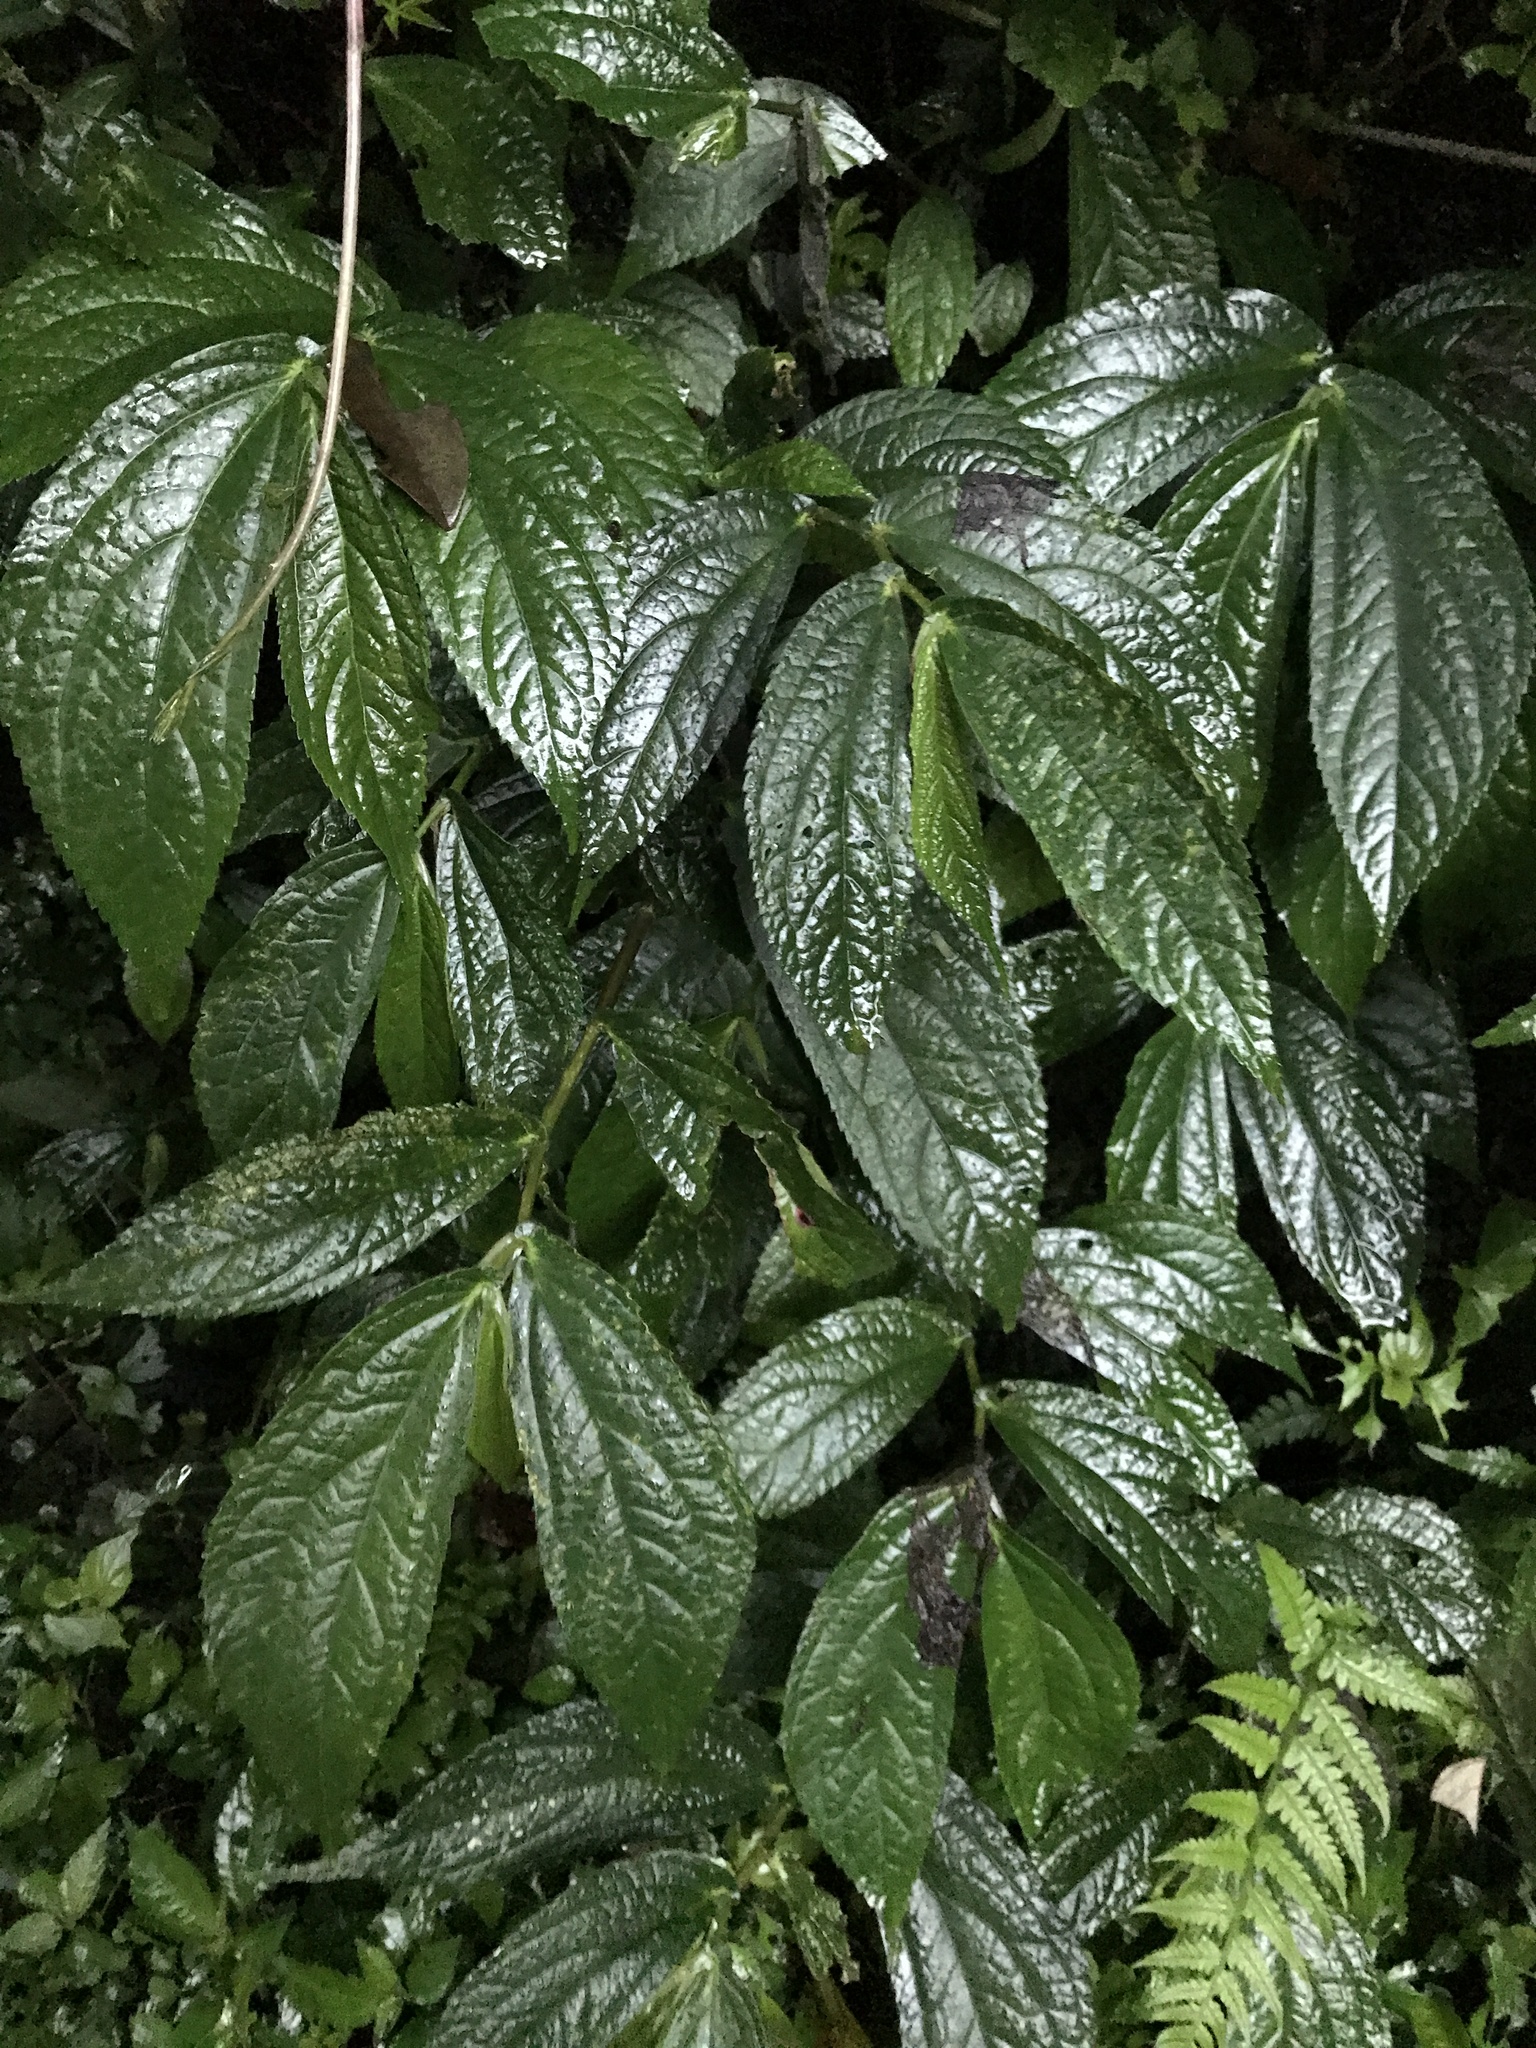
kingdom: Plantae
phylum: Tracheophyta
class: Magnoliopsida
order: Rosales
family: Urticaceae
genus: Elatostema
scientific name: Elatostema platyphyllum
